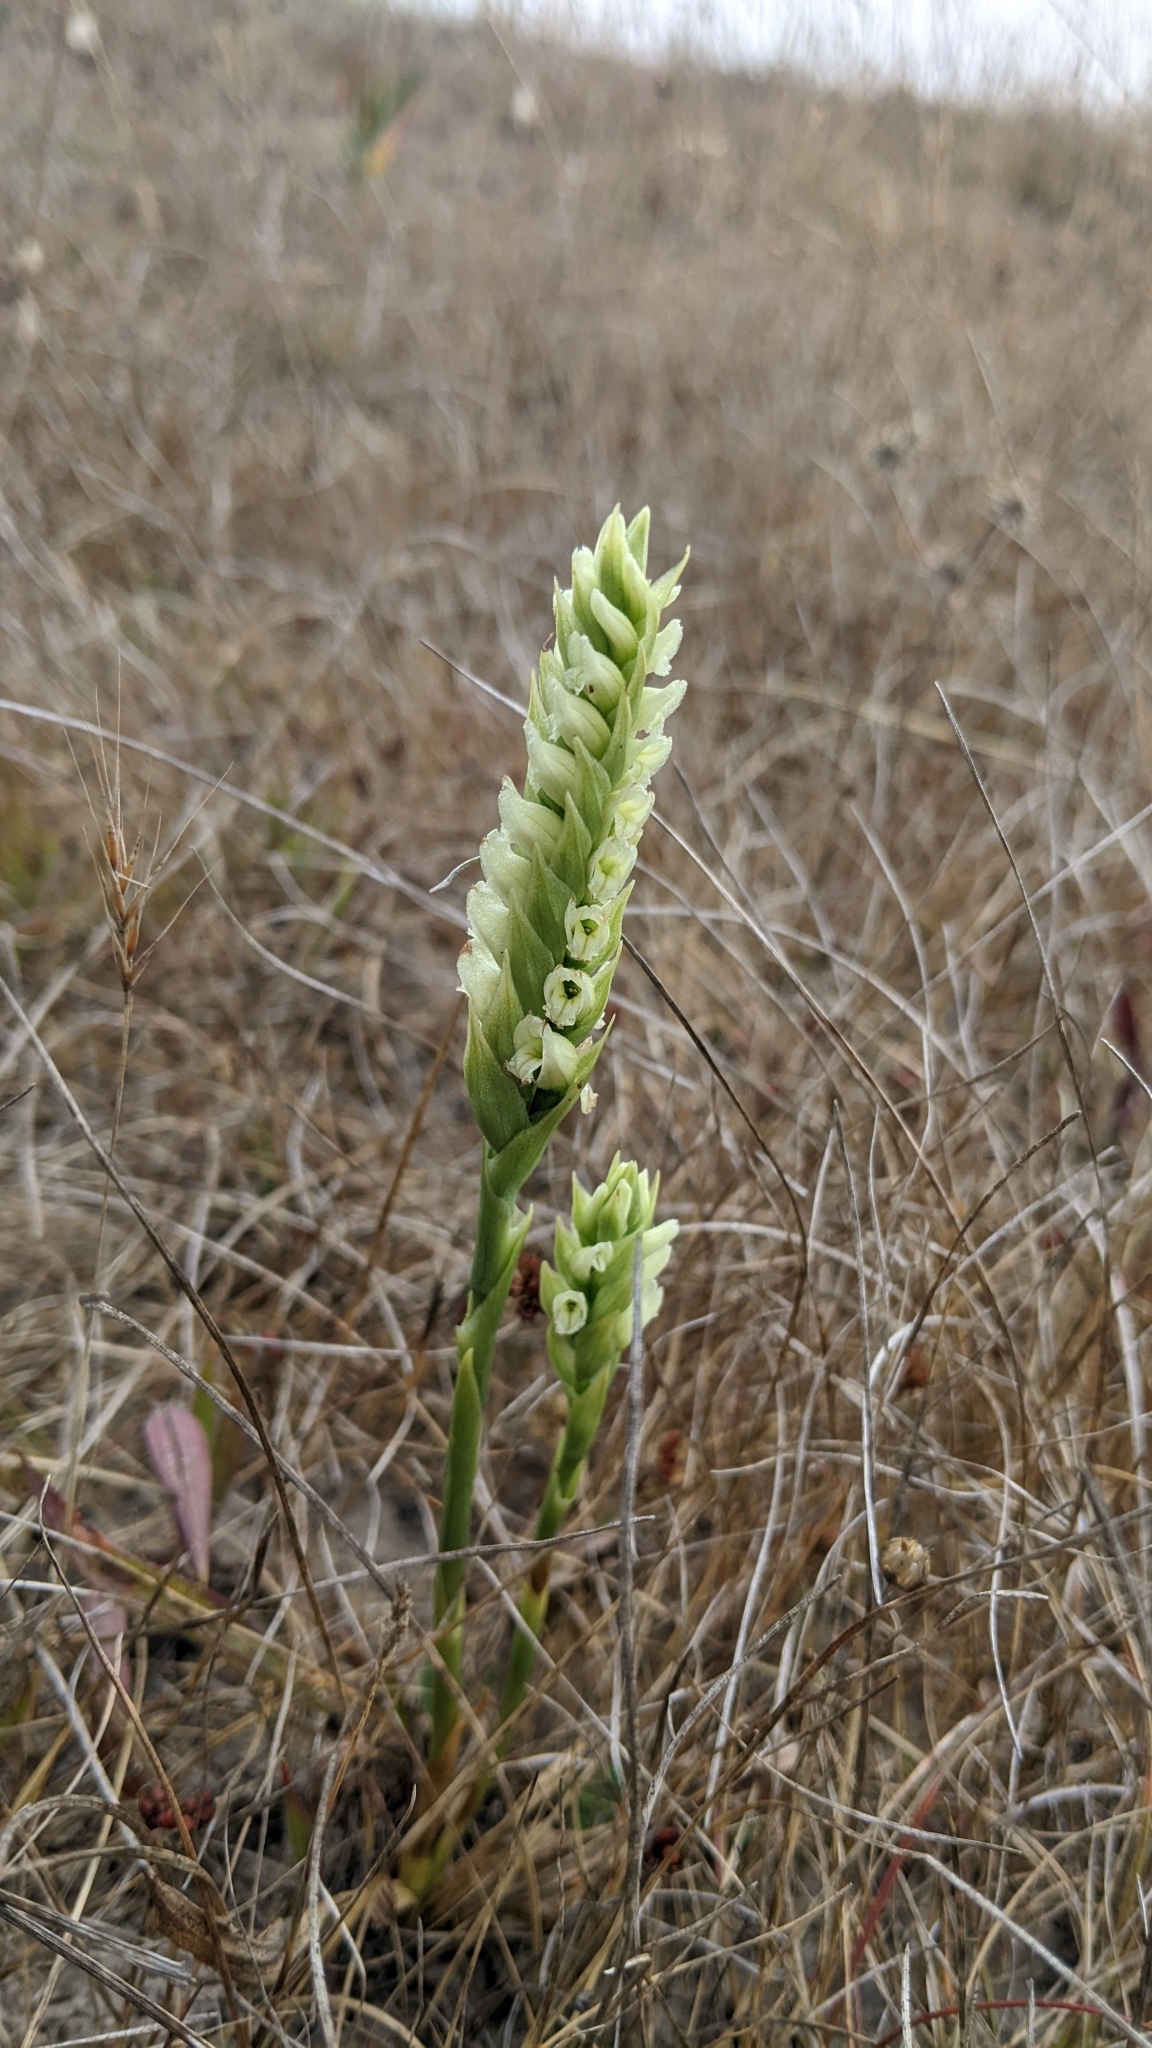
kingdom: Plantae
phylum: Tracheophyta
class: Liliopsida
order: Asparagales
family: Orchidaceae
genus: Spiranthes
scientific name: Spiranthes romanzoffiana
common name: Irish lady's-tresses
